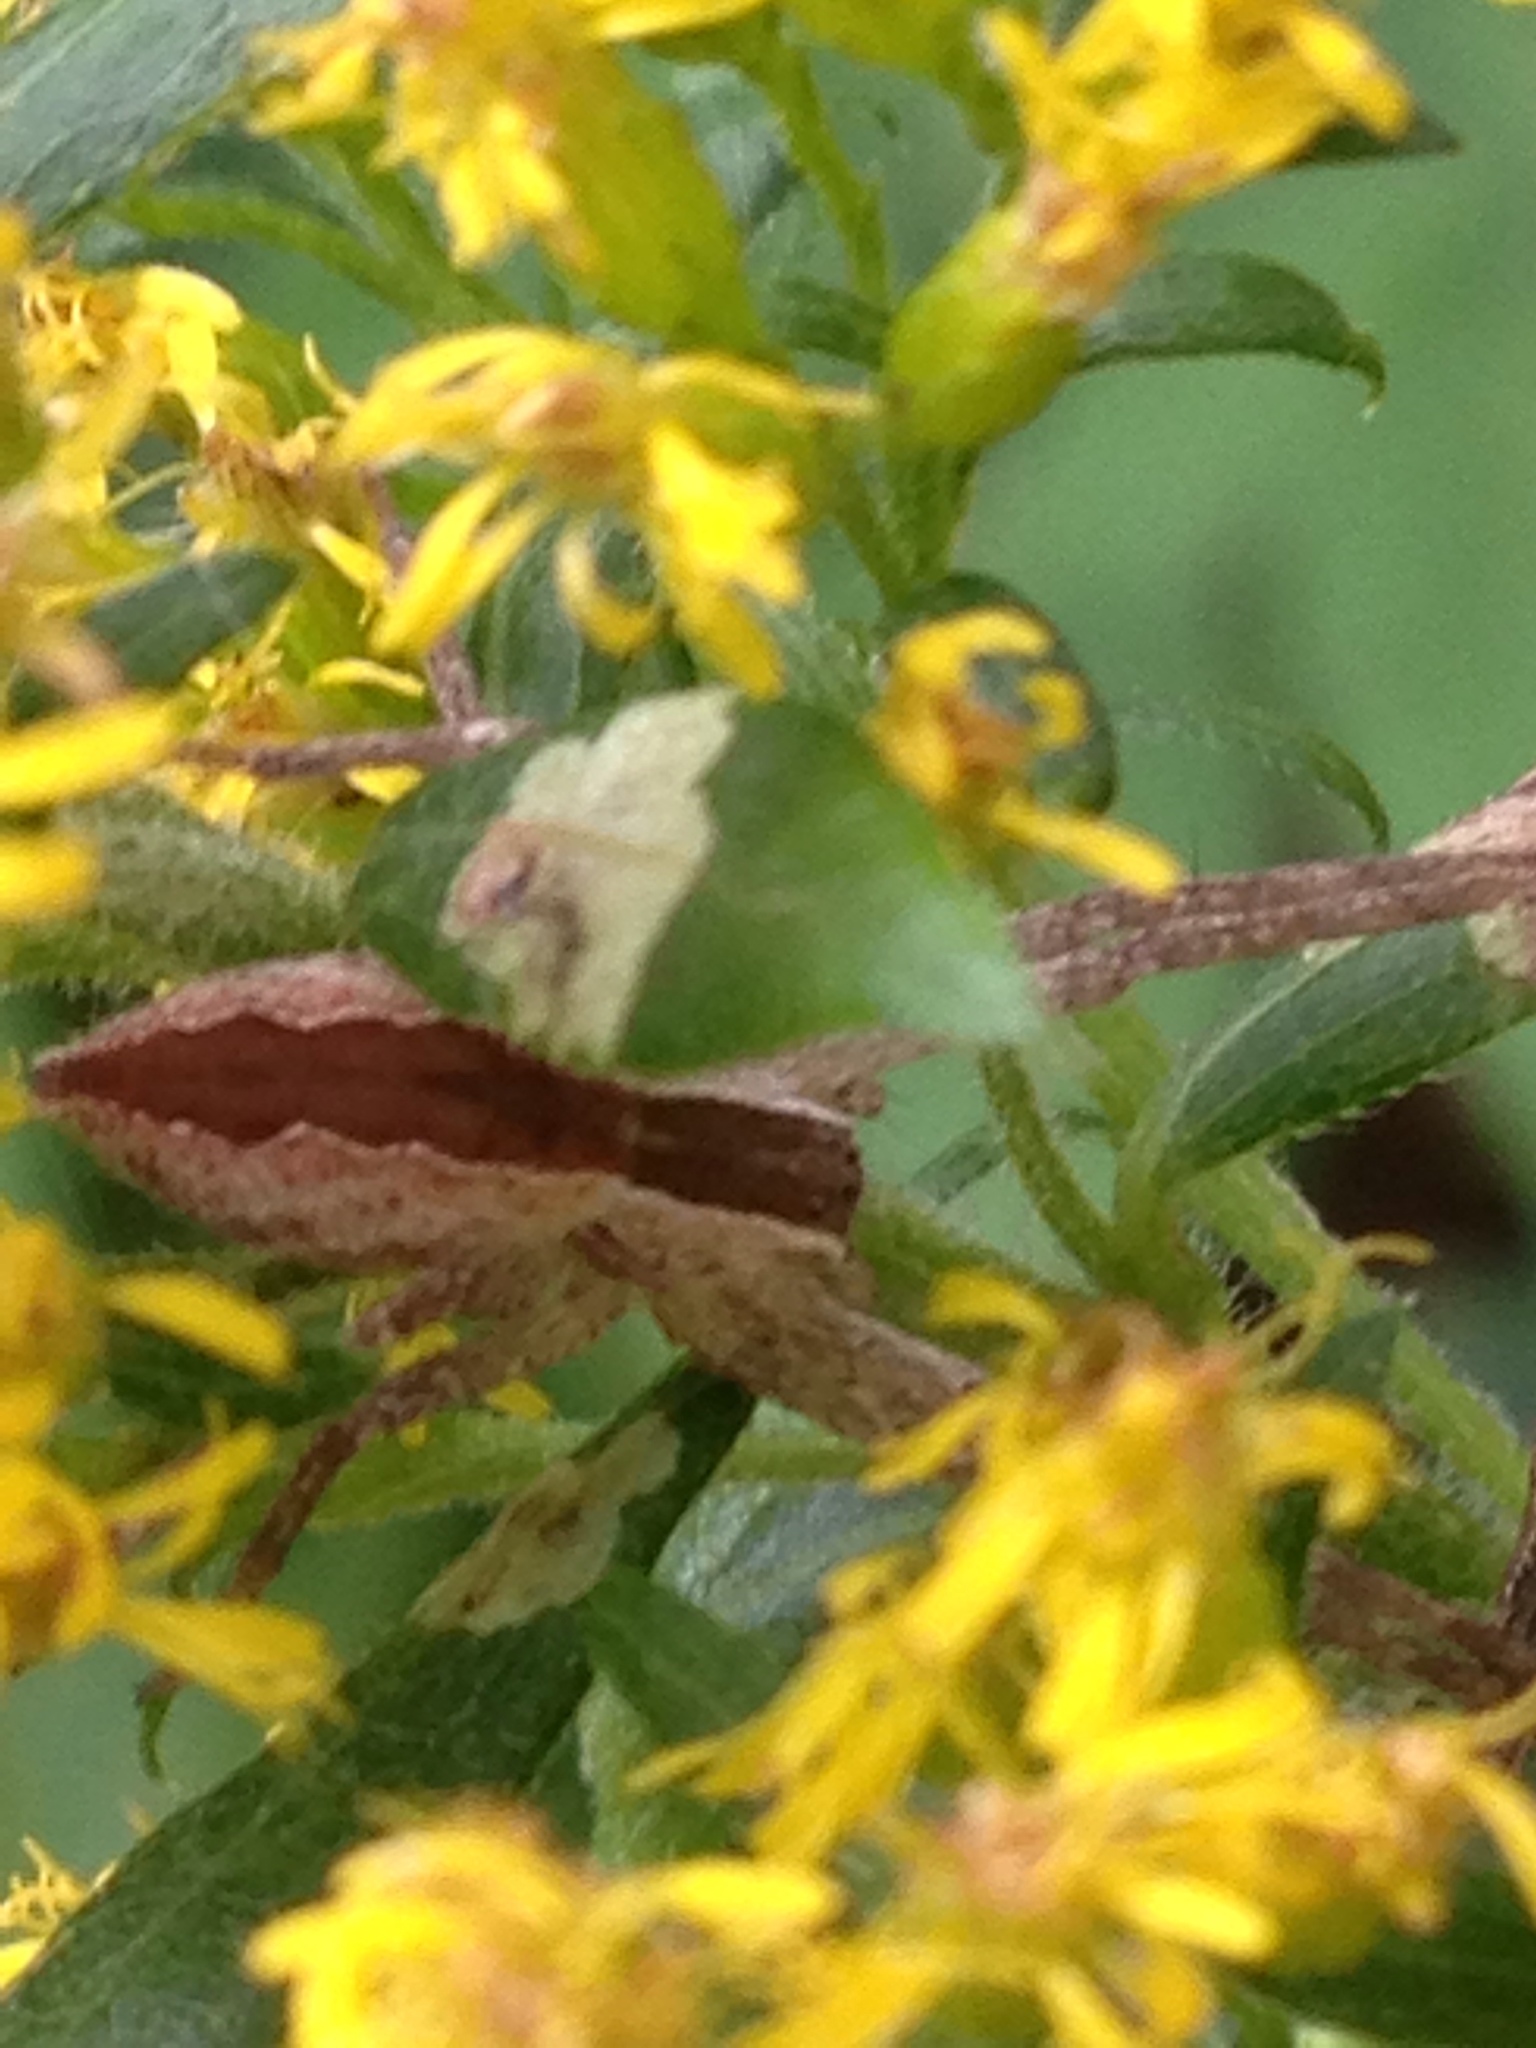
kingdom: Animalia
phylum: Arthropoda
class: Arachnida
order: Araneae
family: Pisauridae
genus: Pisaurina
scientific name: Pisaurina mira
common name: American nursery web spider
